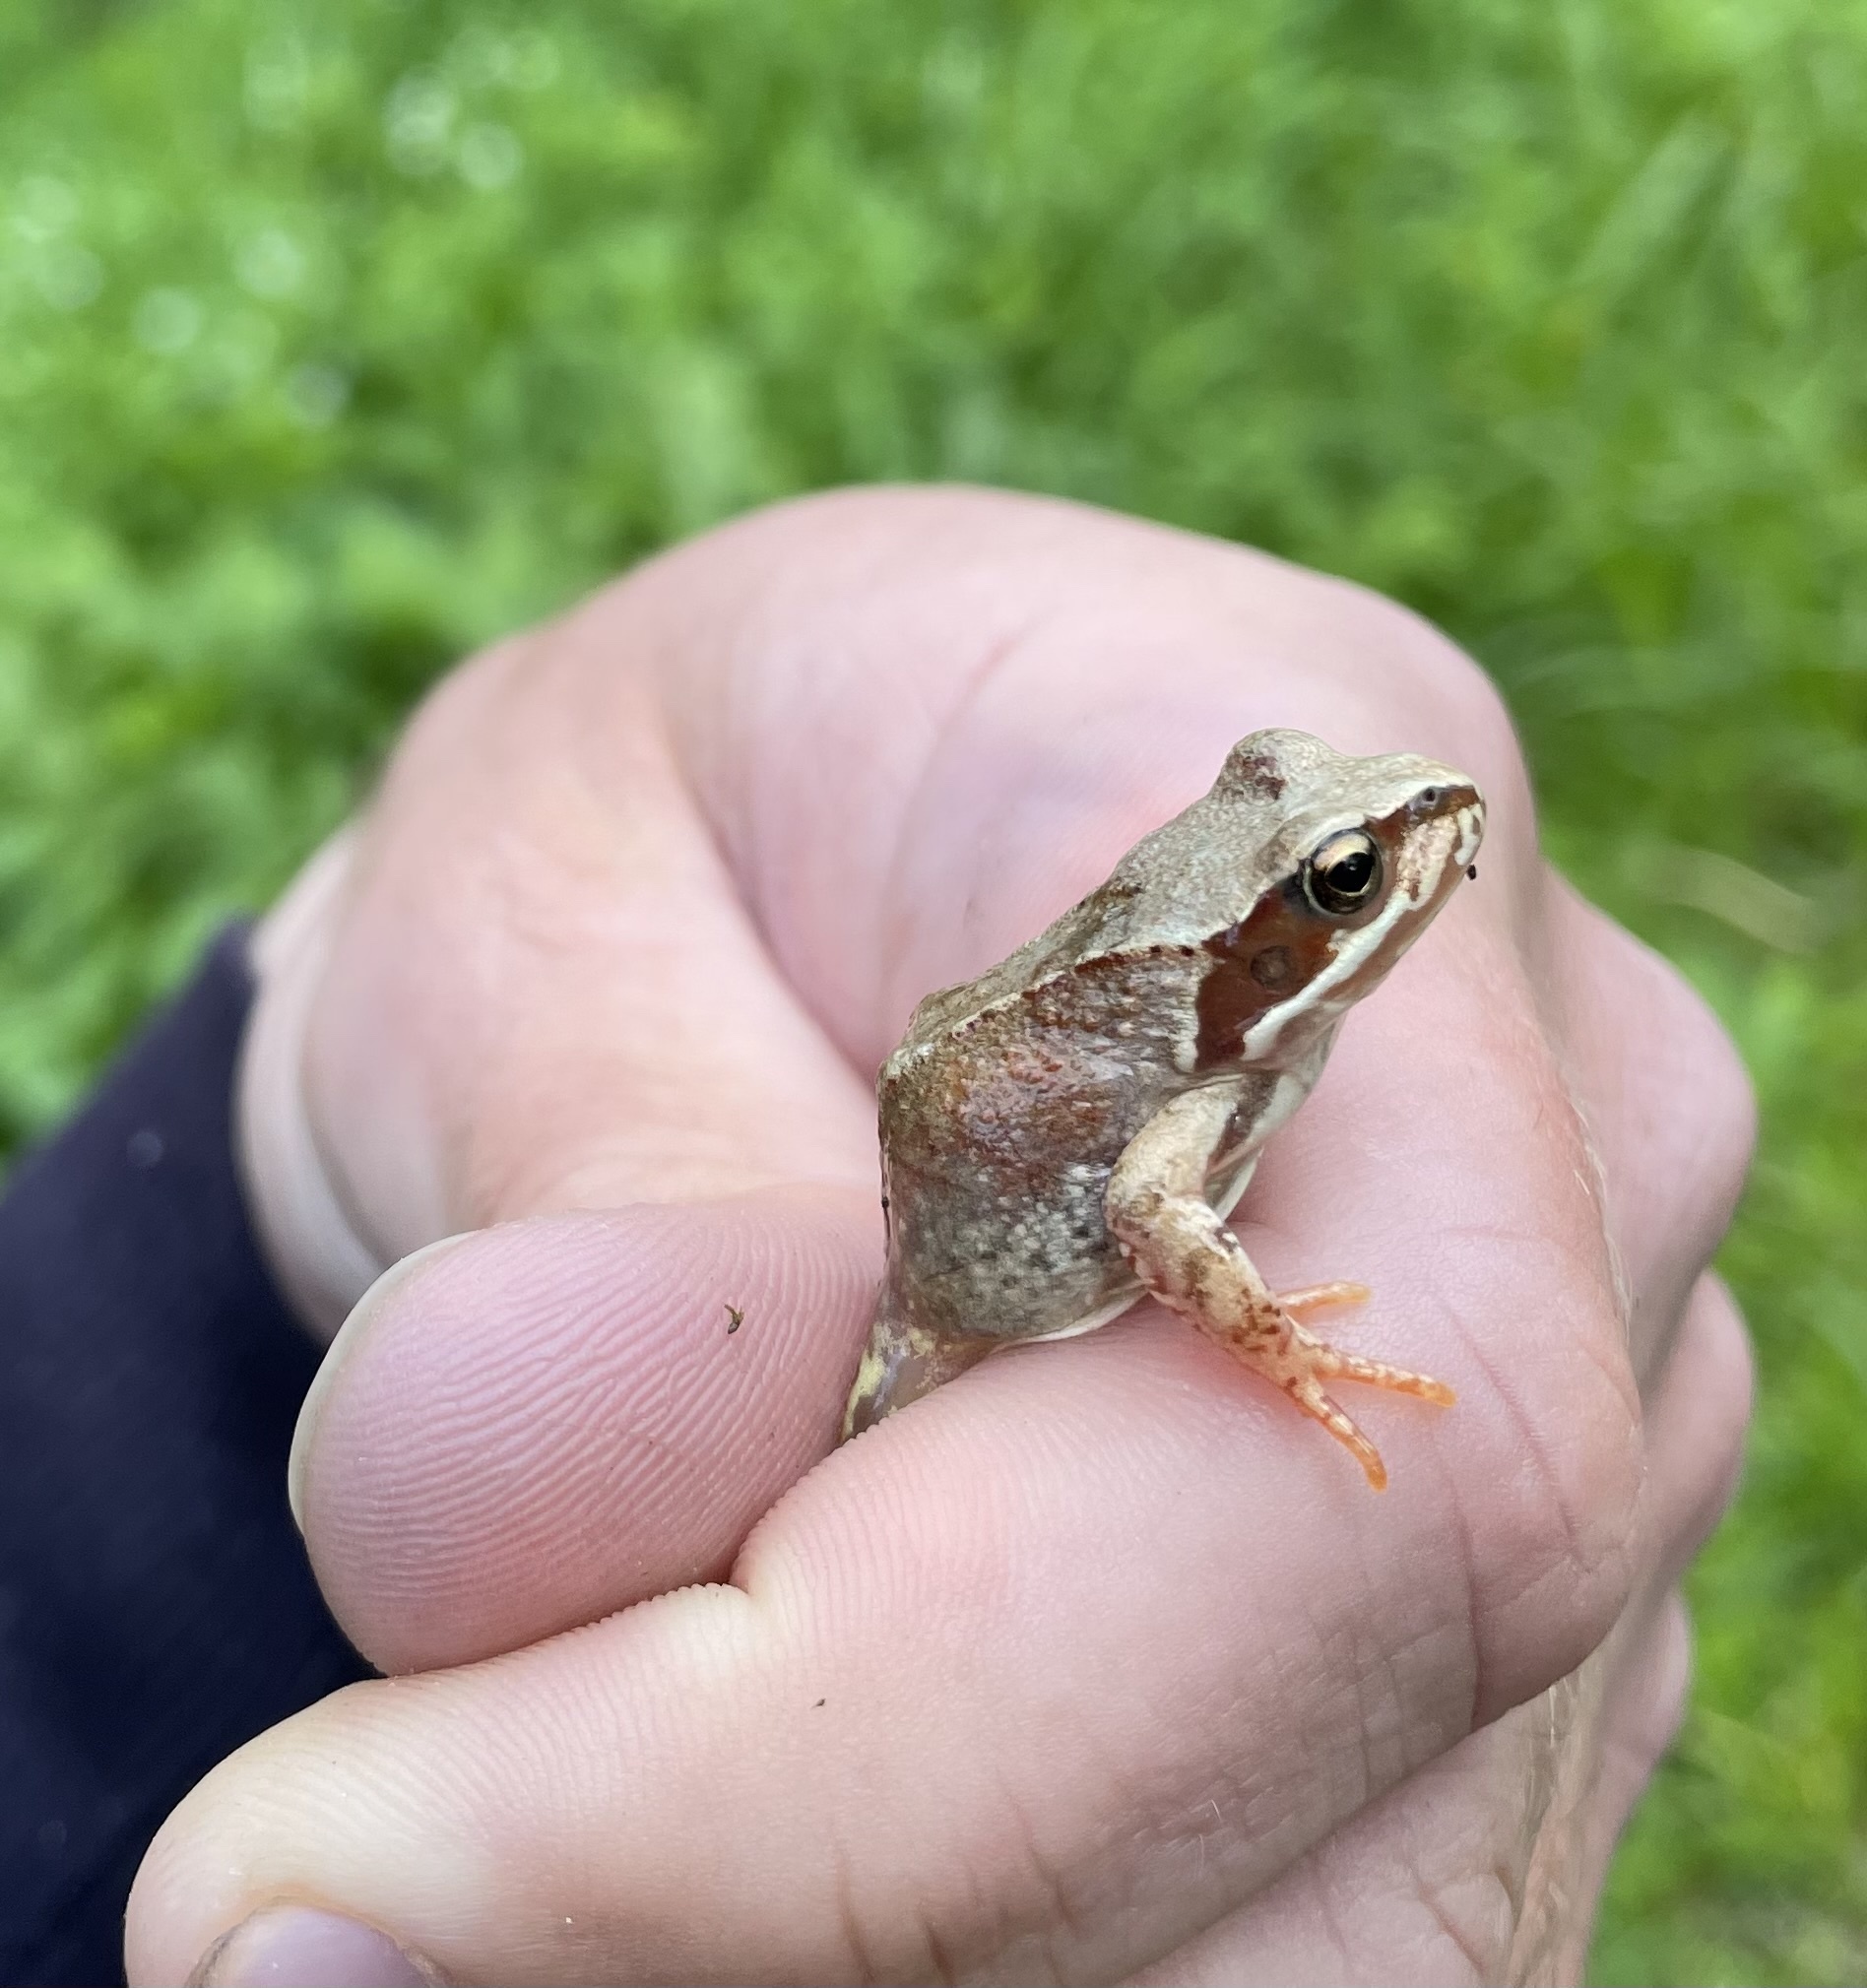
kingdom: Animalia
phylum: Chordata
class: Amphibia
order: Anura
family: Ranidae
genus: Rana
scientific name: Rana temporaria
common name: Common frog
